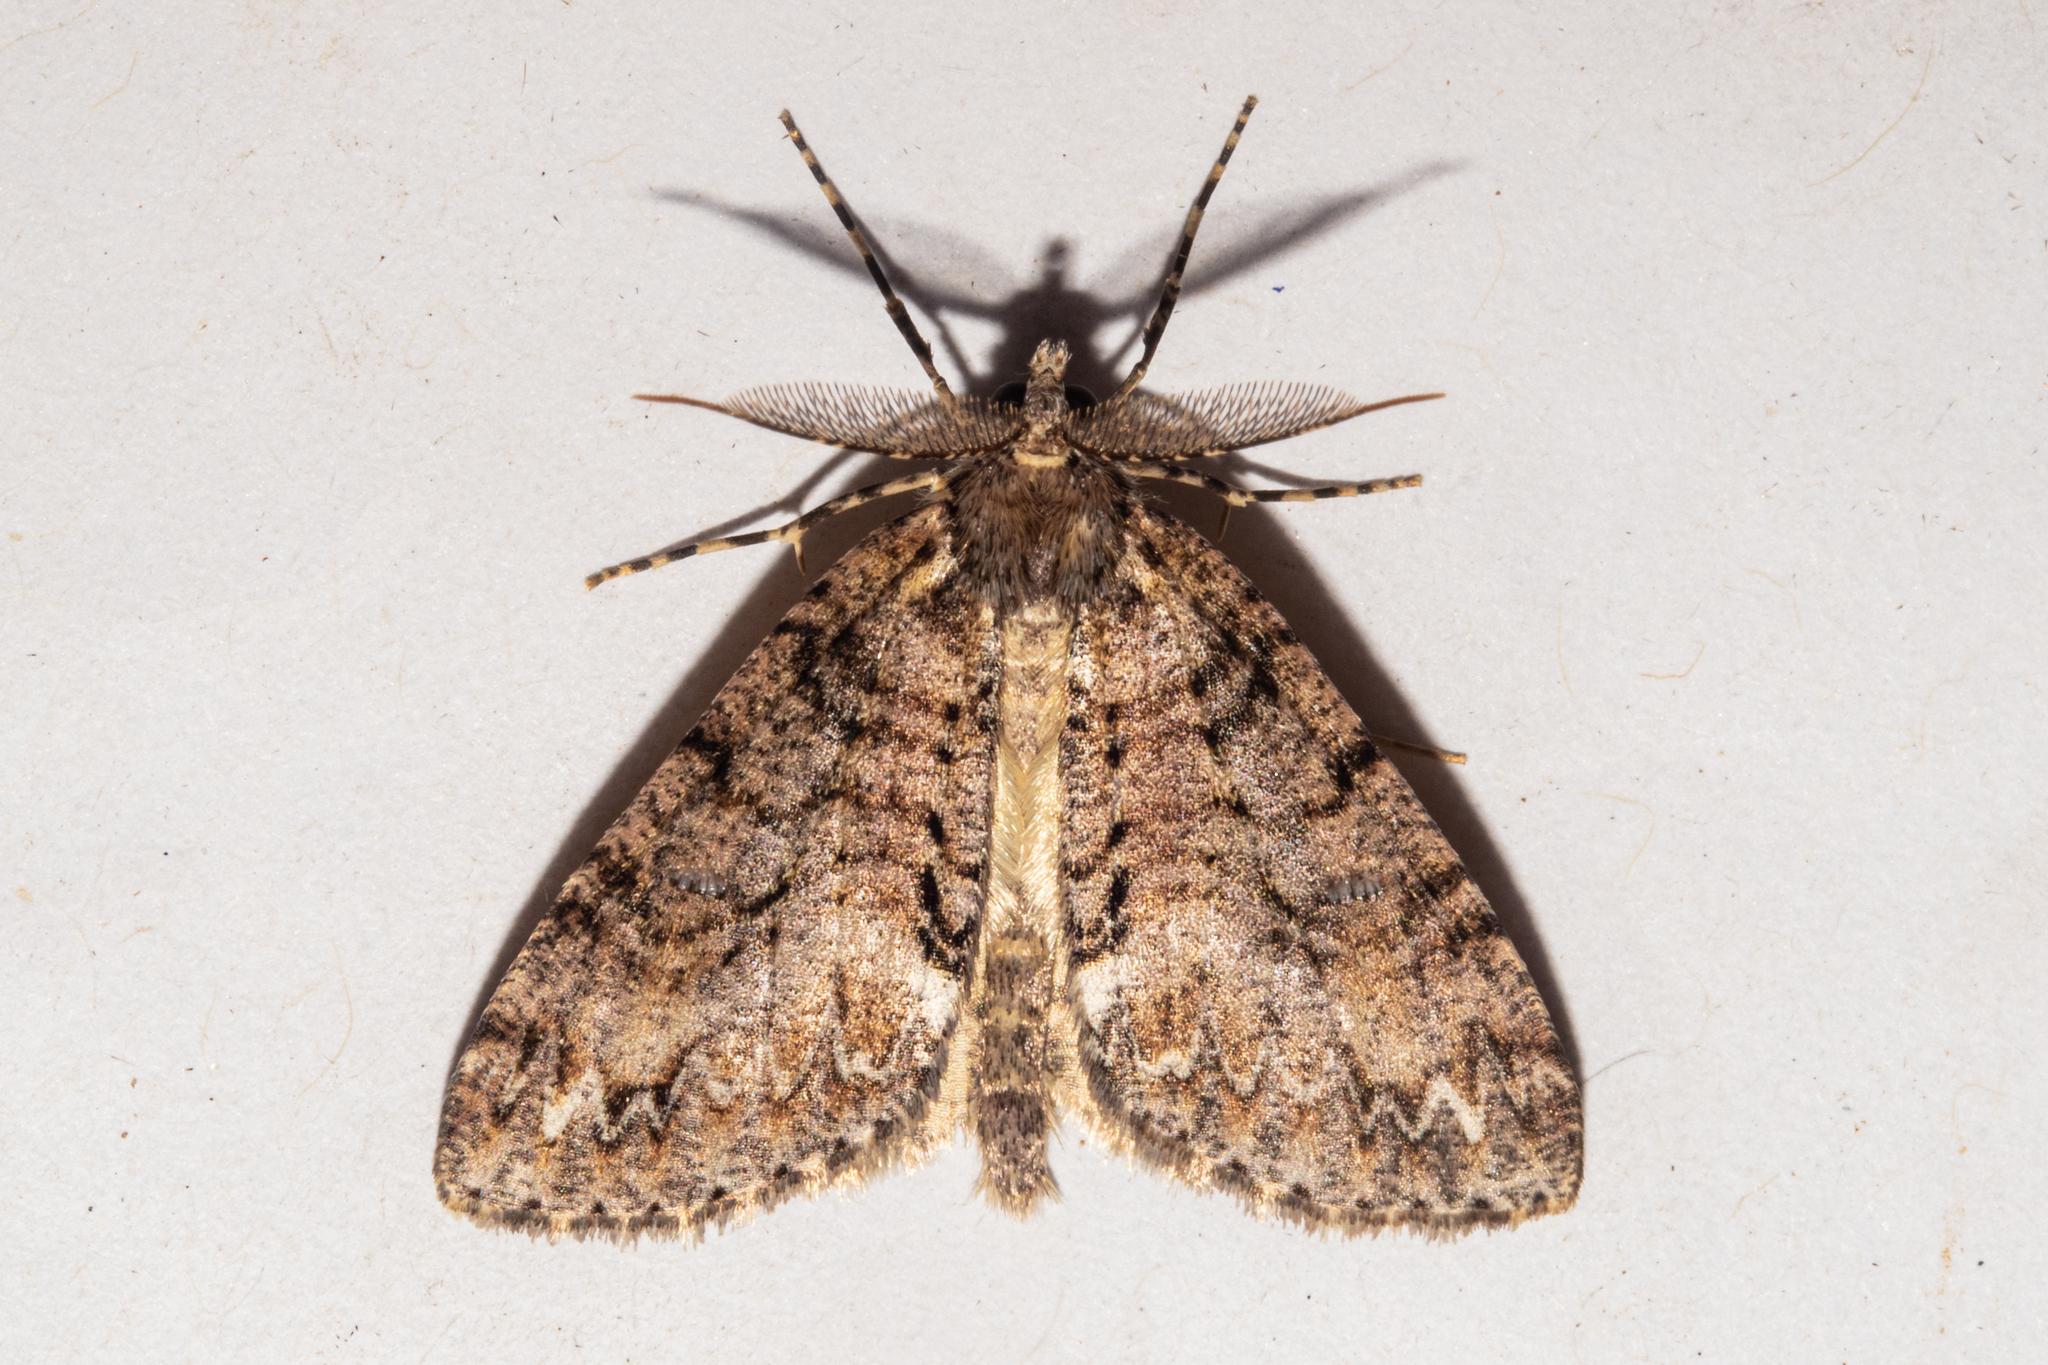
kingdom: Animalia
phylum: Arthropoda
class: Insecta
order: Lepidoptera
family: Geometridae
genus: Pseudocoremia
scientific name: Pseudocoremia suavis
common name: Common forest looper
